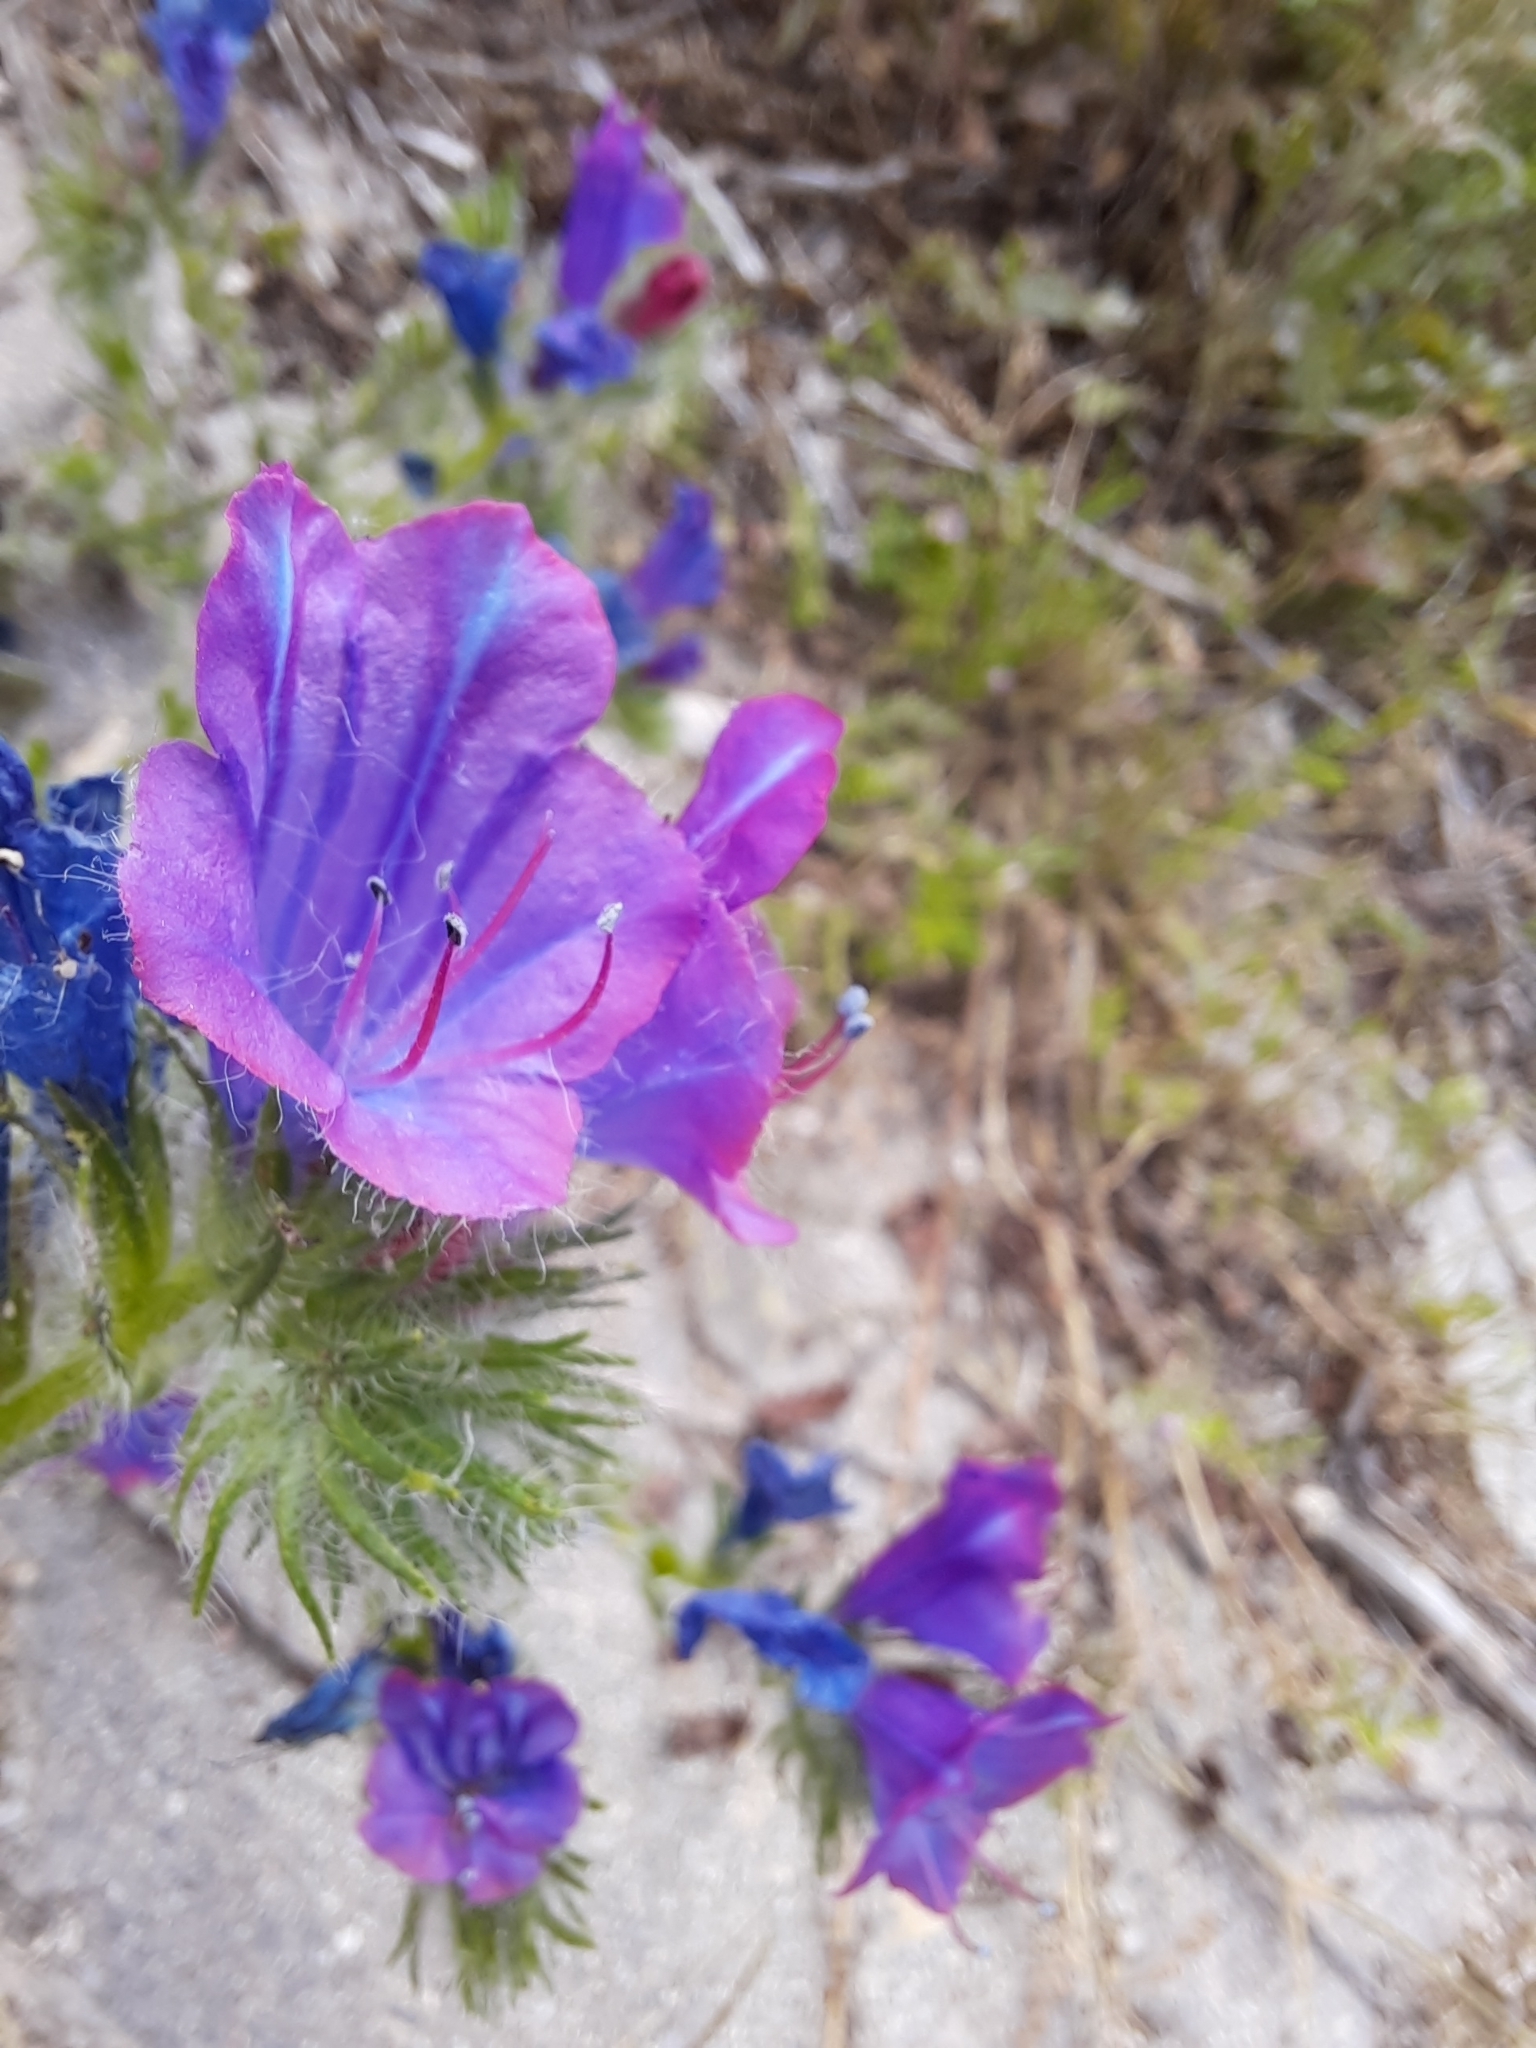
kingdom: Plantae
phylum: Tracheophyta
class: Magnoliopsida
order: Boraginales
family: Boraginaceae
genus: Echium
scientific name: Echium plantagineum
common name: Purple viper's-bugloss
